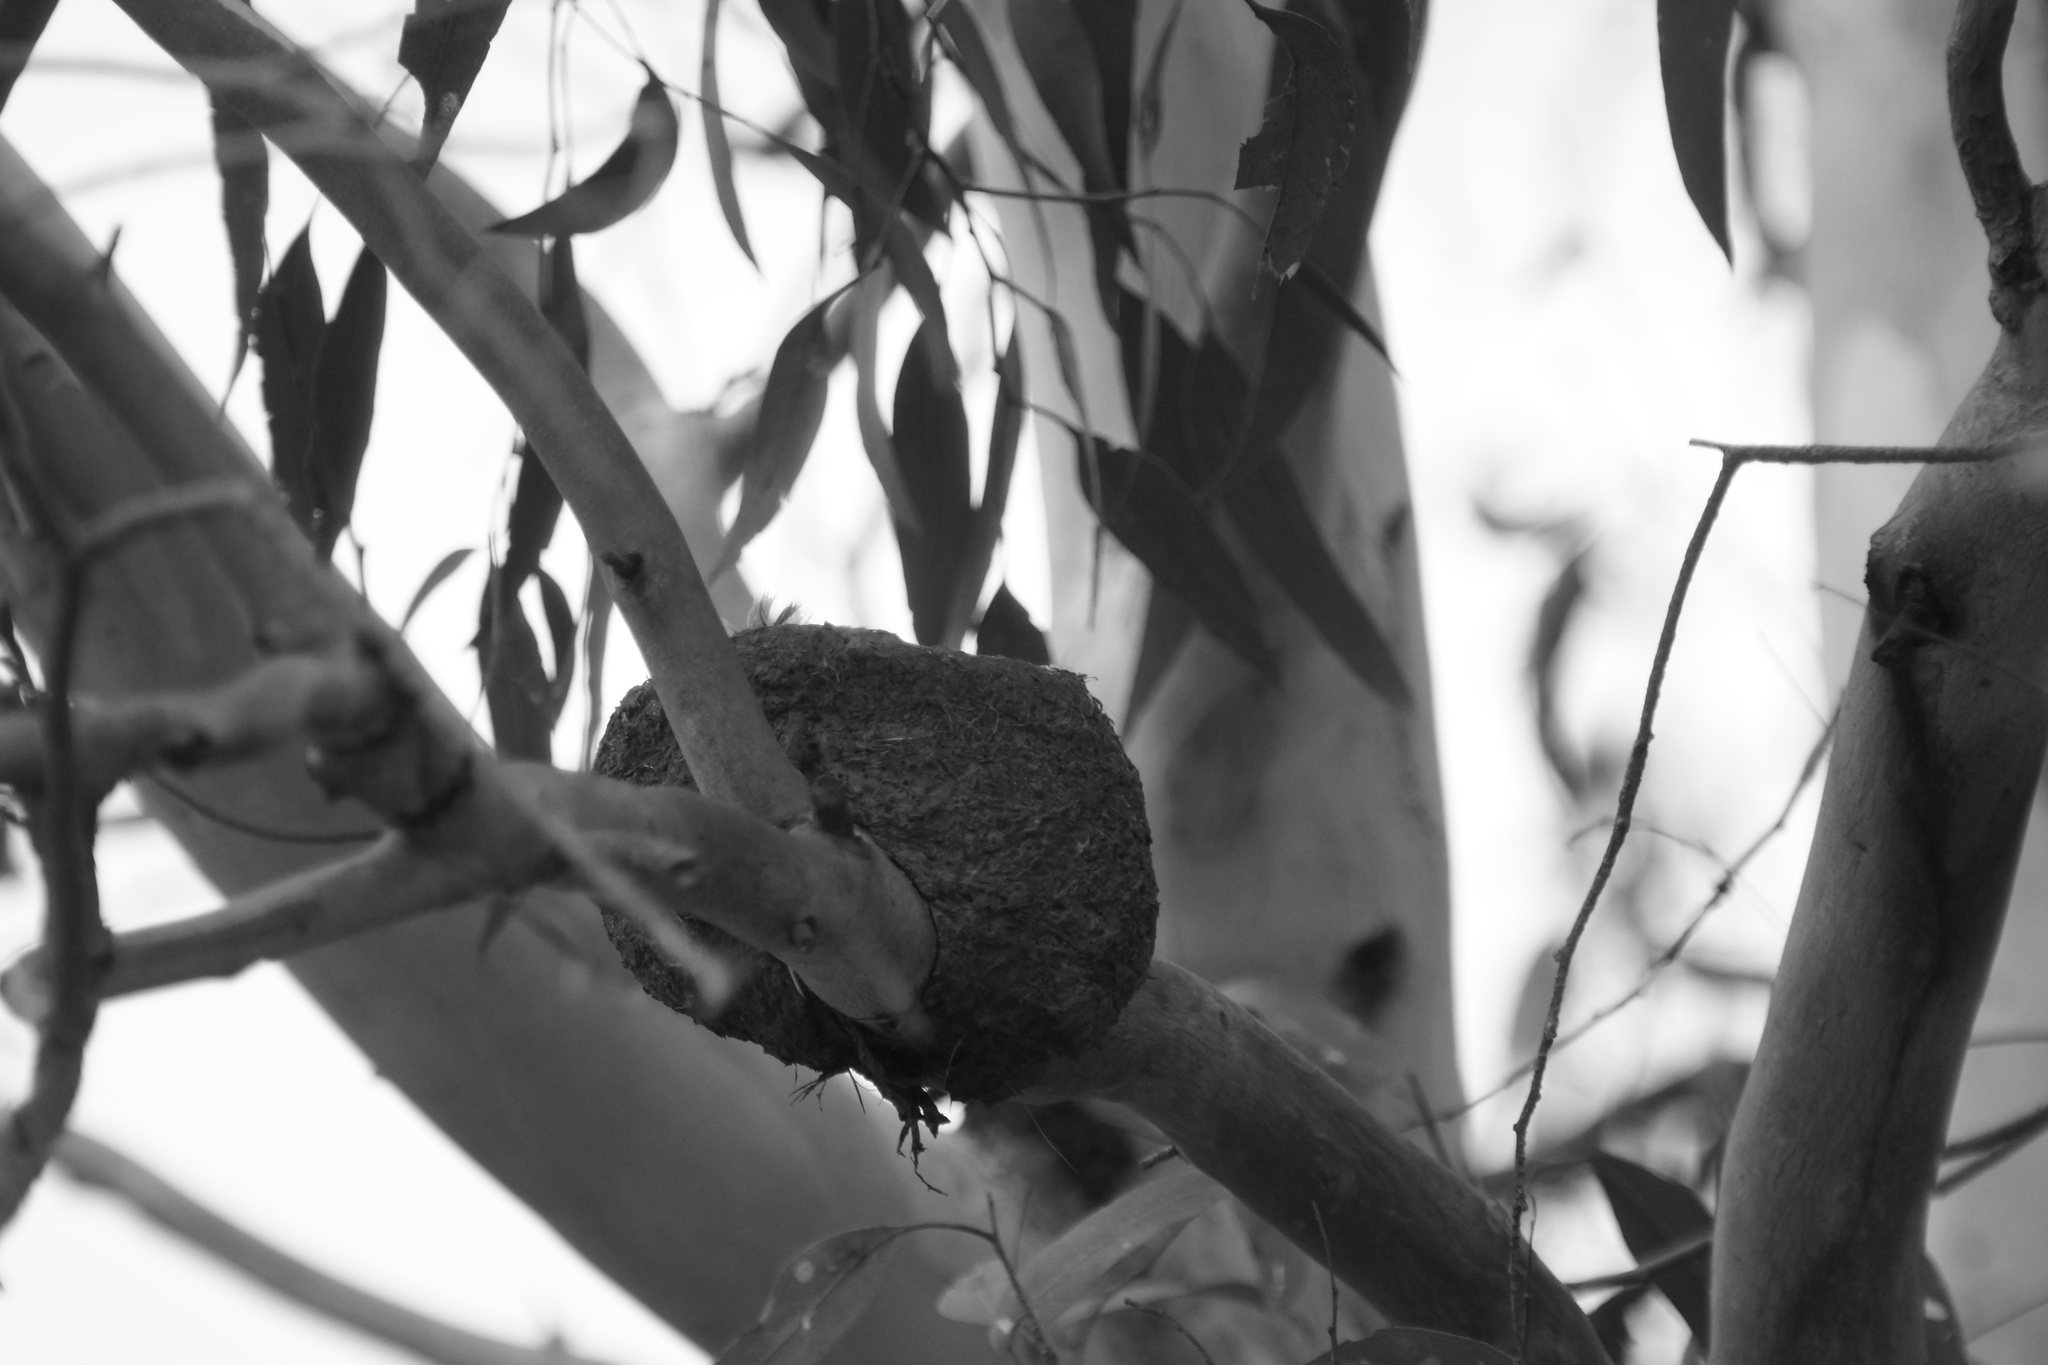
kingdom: Animalia
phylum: Chordata
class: Aves
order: Passeriformes
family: Monarchidae
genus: Grallina
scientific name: Grallina cyanoleuca
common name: Magpie-lark
